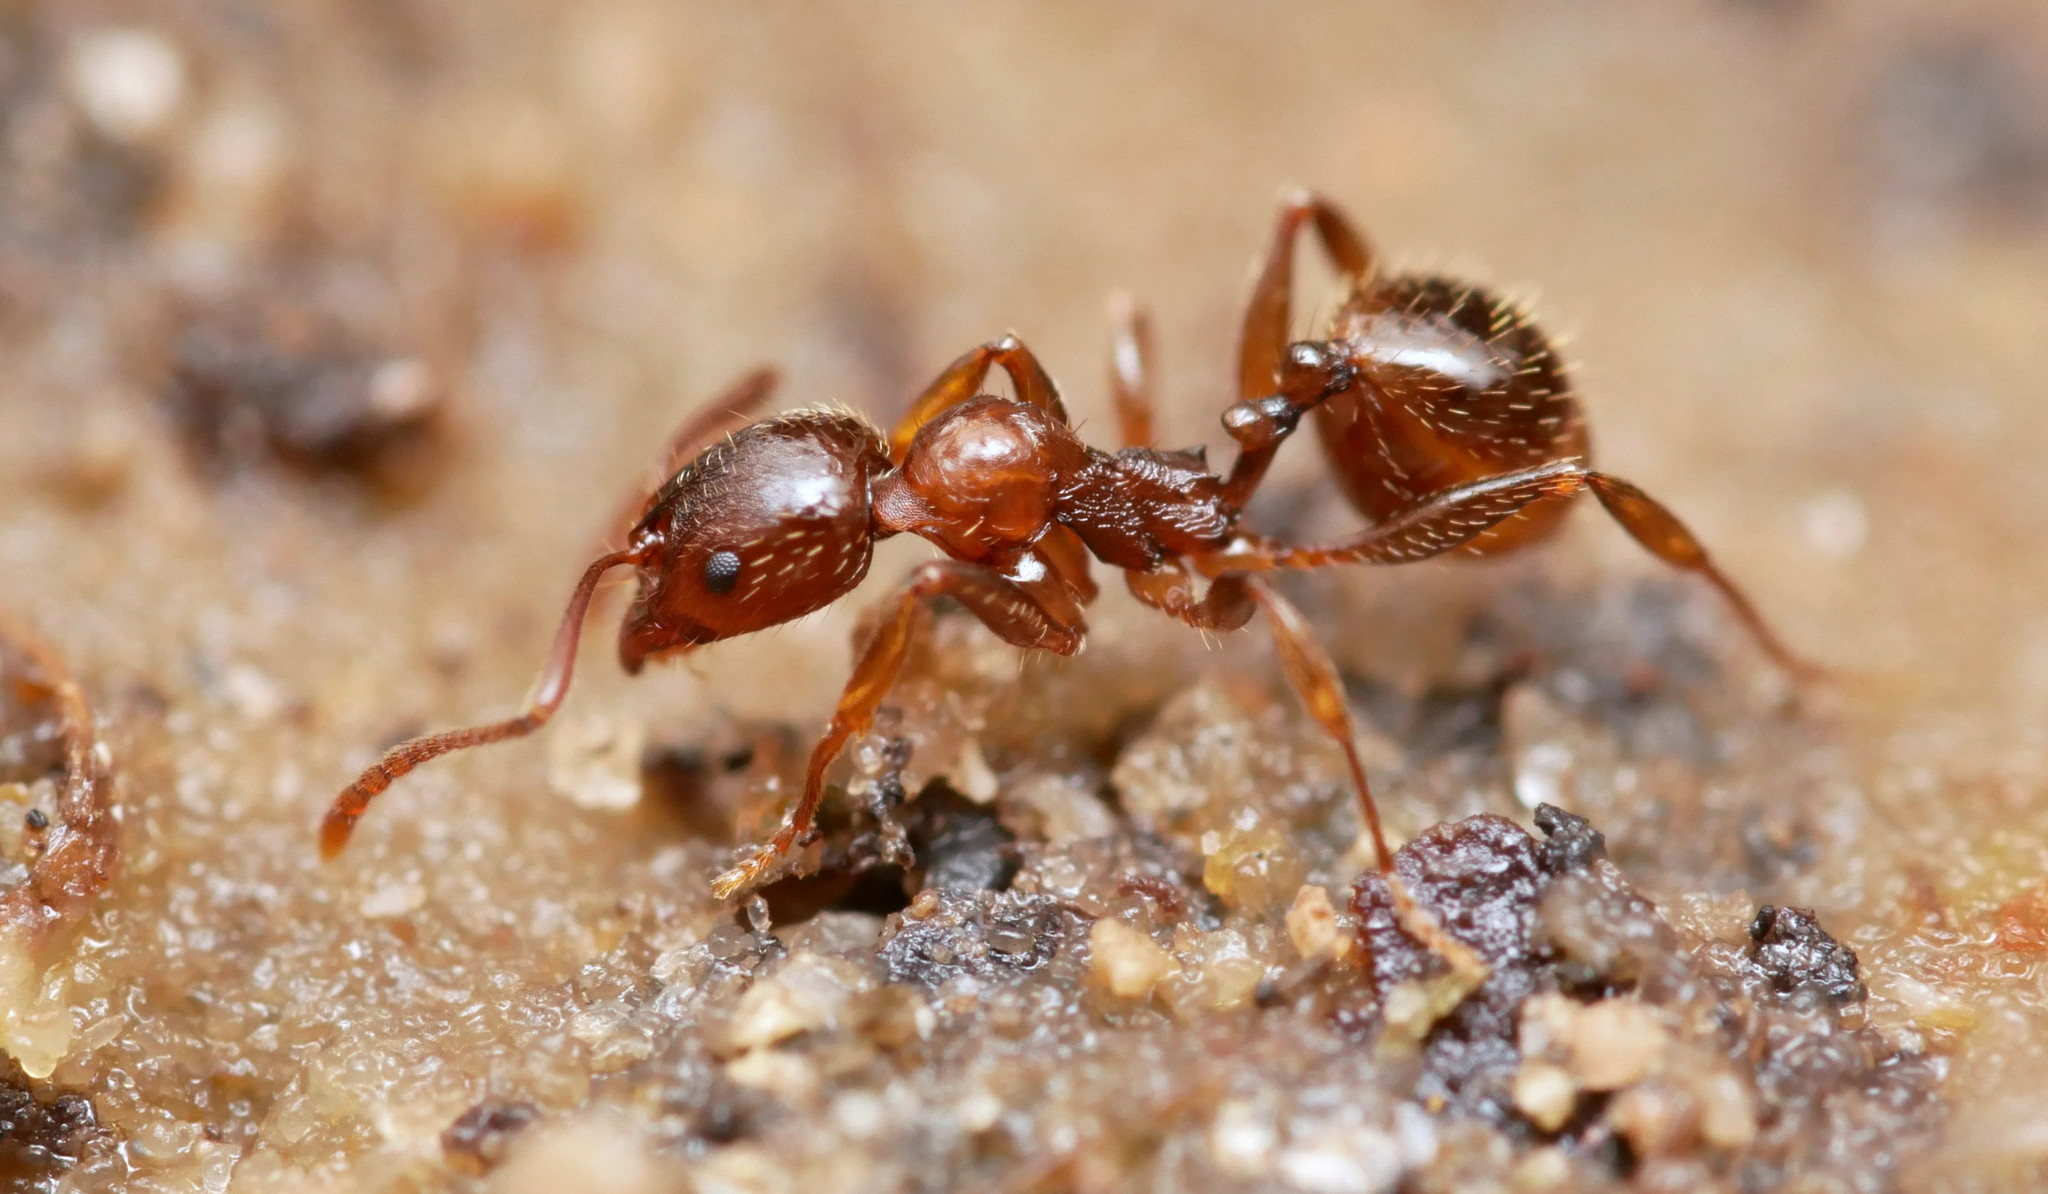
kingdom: Animalia
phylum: Arthropoda
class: Insecta
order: Hymenoptera
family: Formicidae
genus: Aphaenogaster
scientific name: Aphaenogaster subterranea
